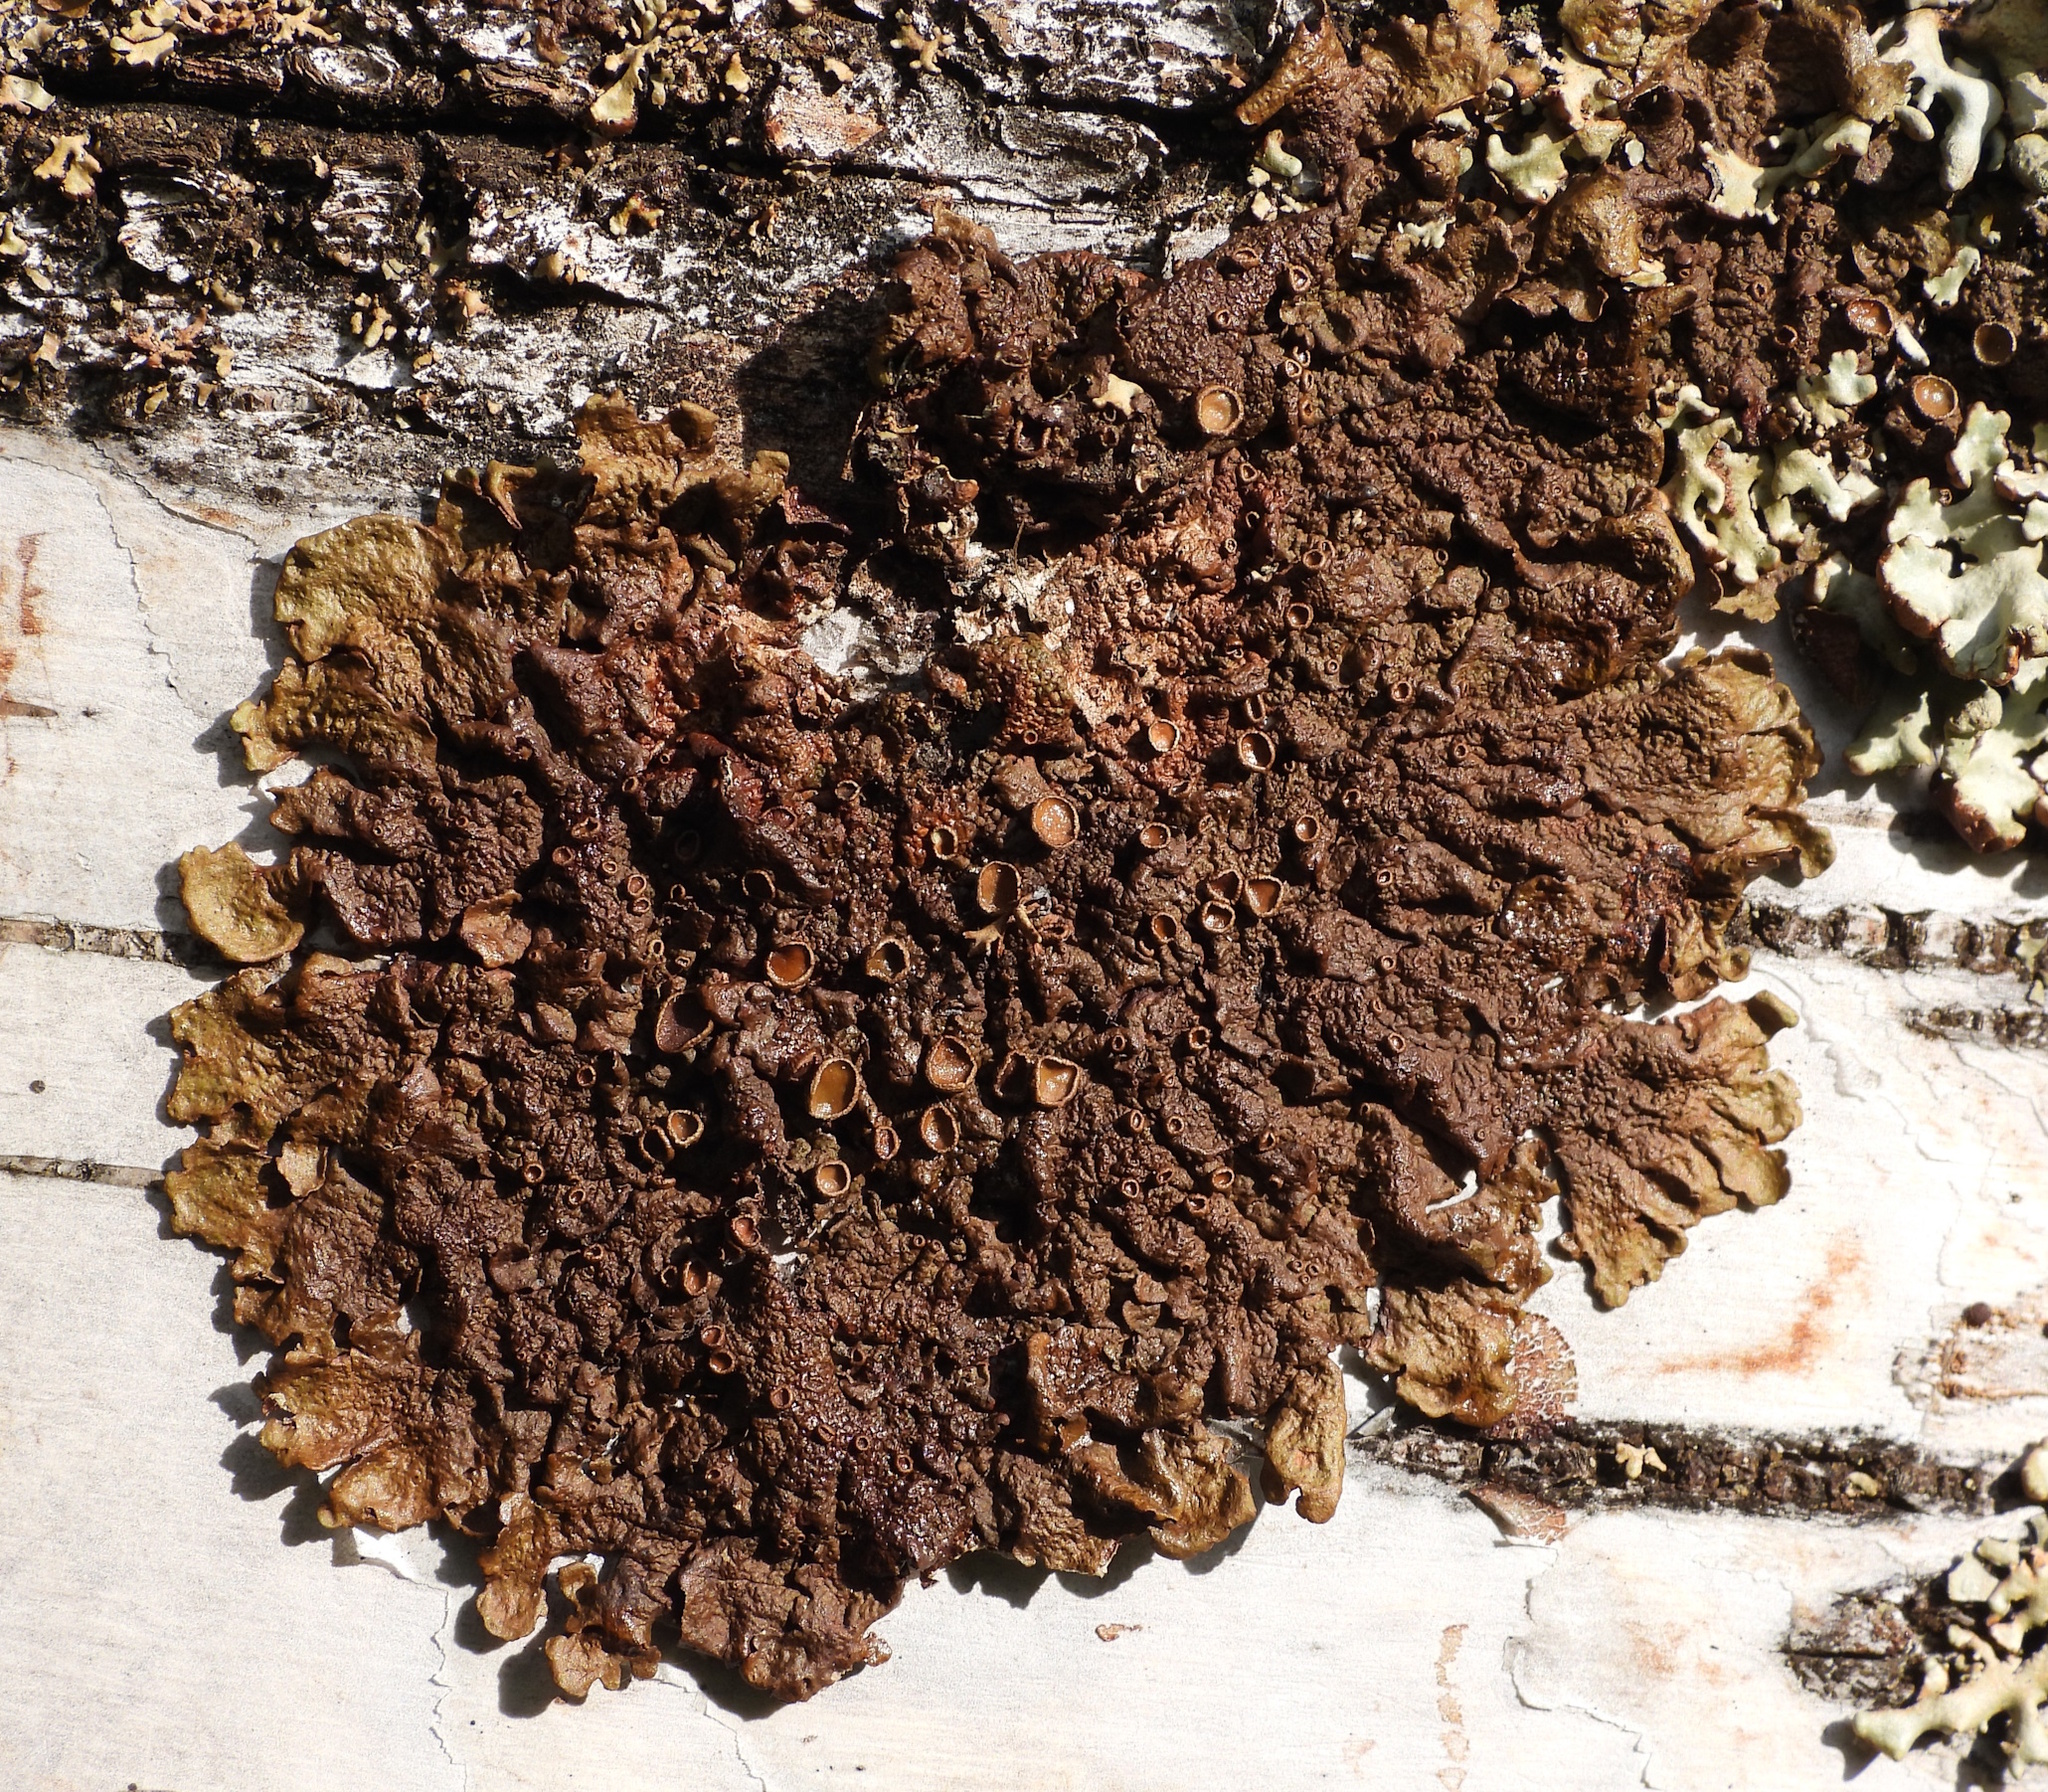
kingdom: Fungi
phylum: Ascomycota
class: Lecanoromycetes
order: Lecanorales
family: Parmeliaceae
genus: Melanohalea
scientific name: Melanohalea olivacea
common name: Spotted camouflage lichen
